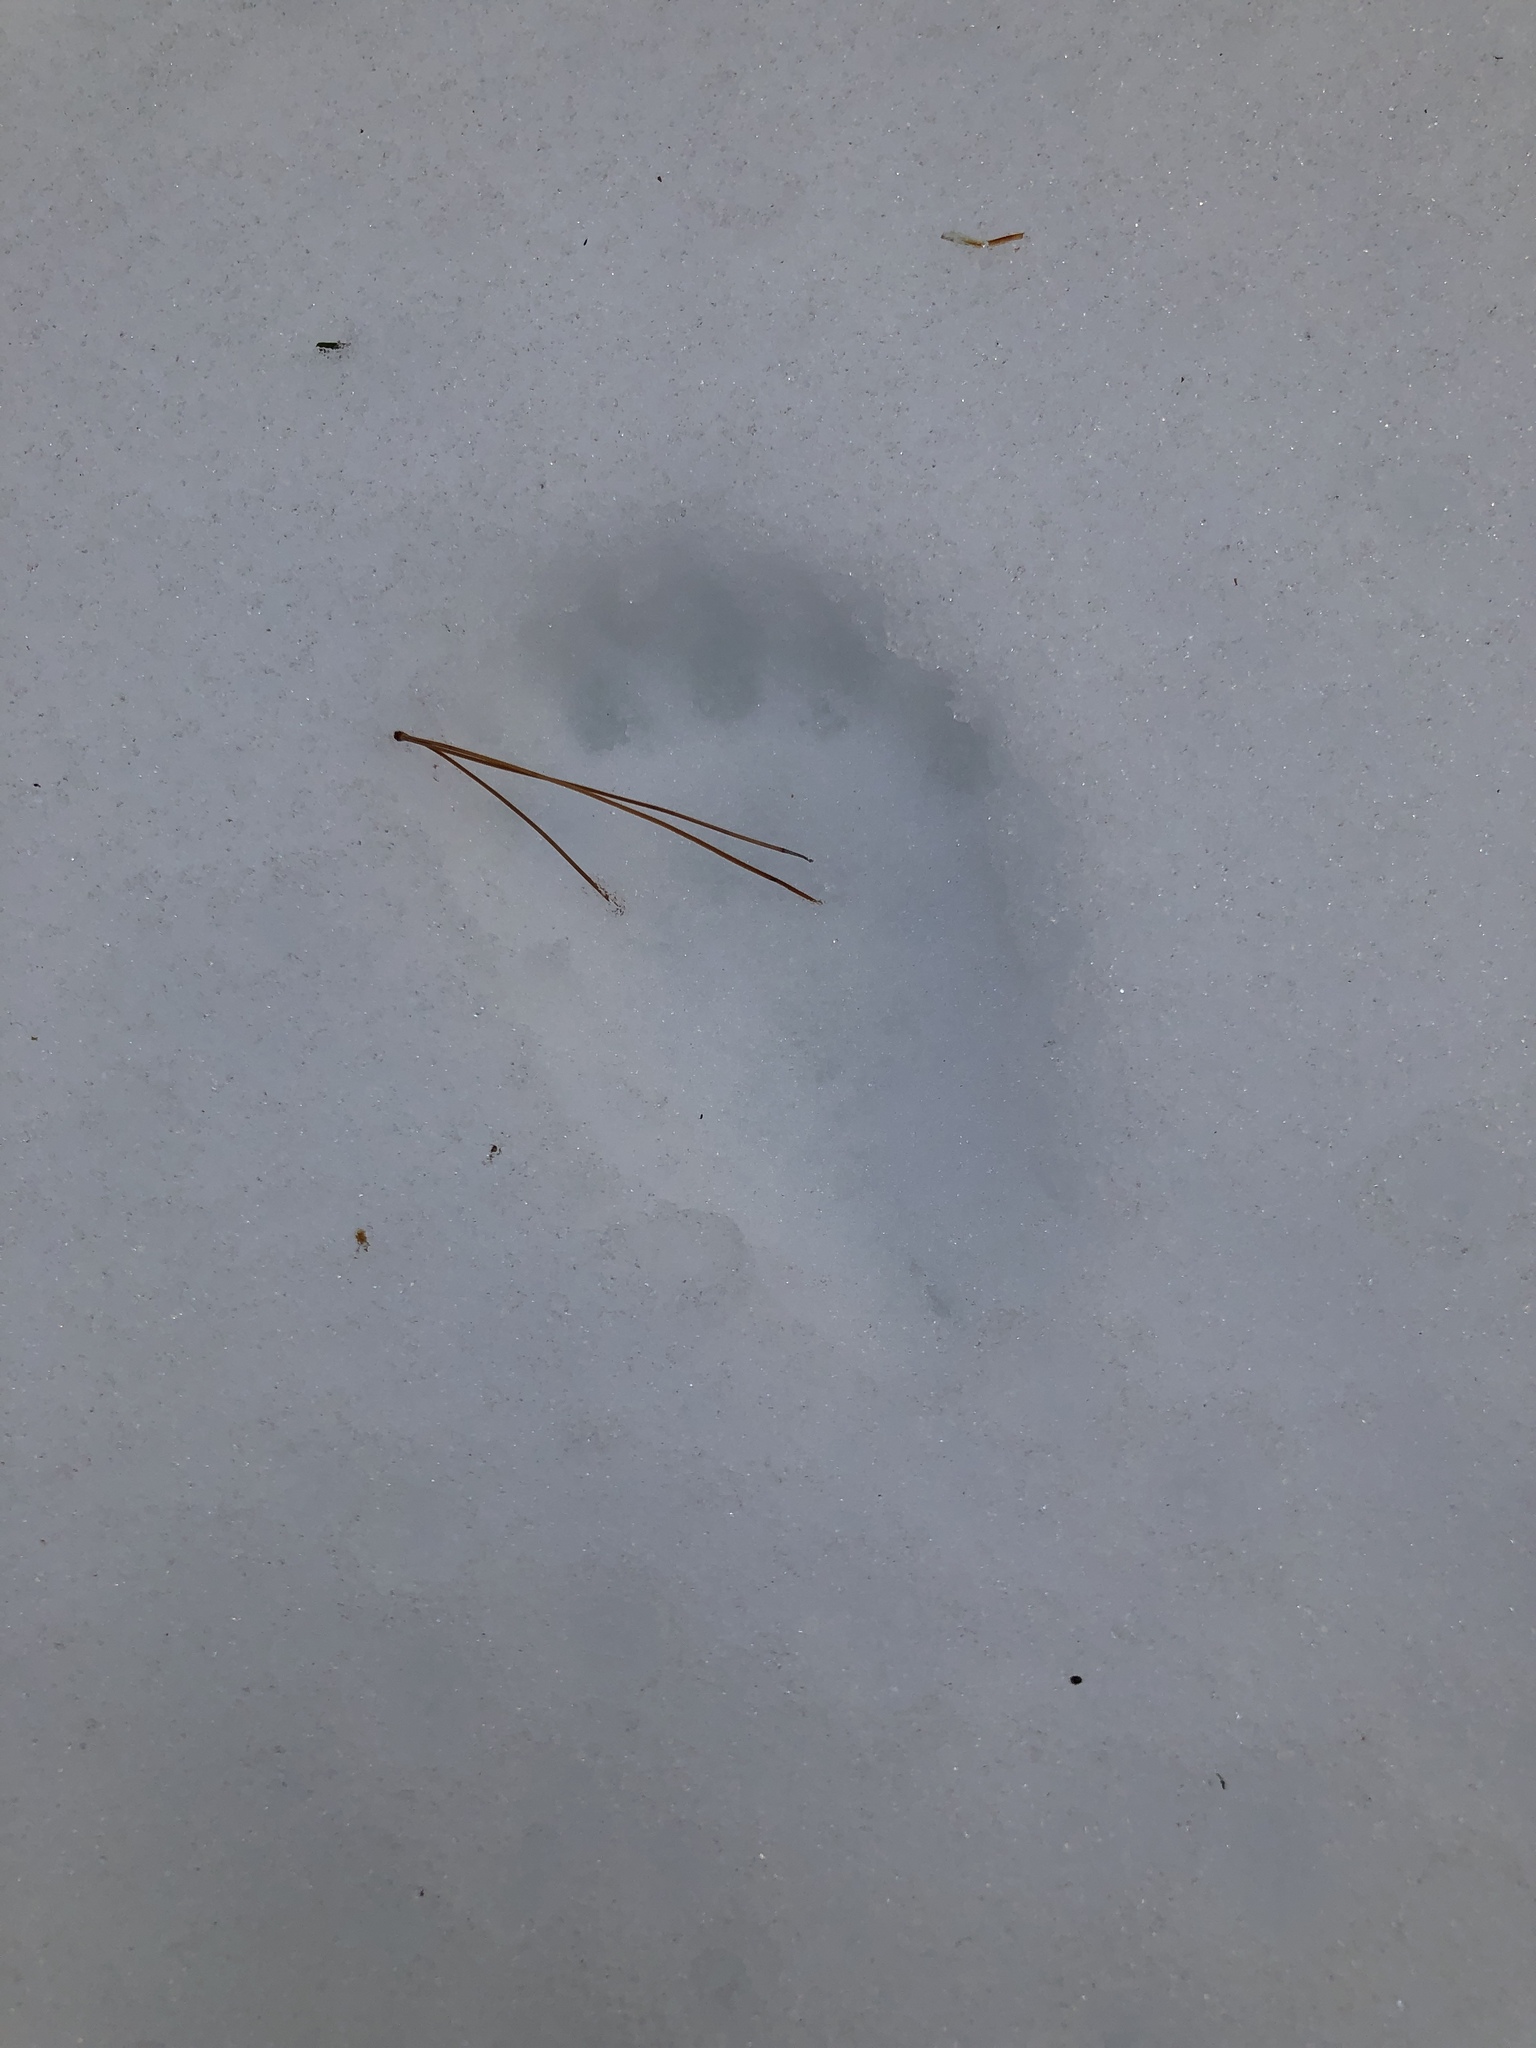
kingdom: Animalia
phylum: Chordata
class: Mammalia
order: Carnivora
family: Mustelidae
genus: Pekania
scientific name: Pekania pennanti
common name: Fisher
